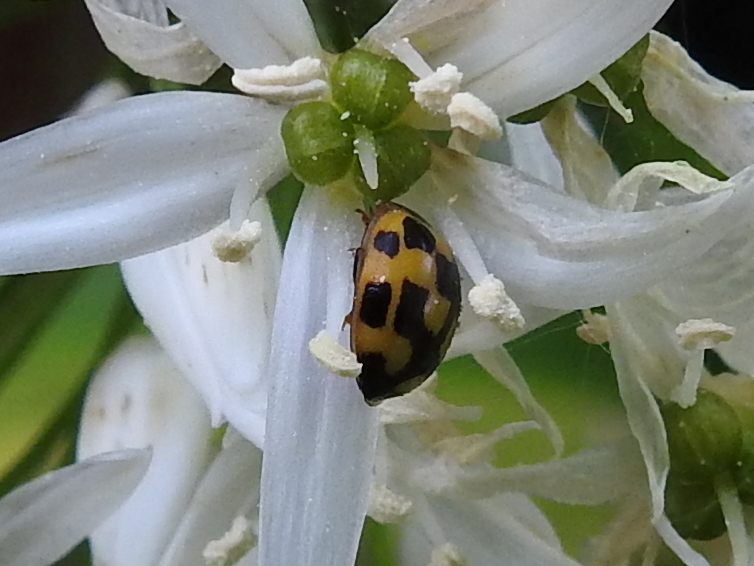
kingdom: Animalia
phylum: Arthropoda
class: Insecta
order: Coleoptera
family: Coccinellidae
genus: Propylaea
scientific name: Propylaea quatuordecimpunctata
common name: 14-spotted ladybird beetle
